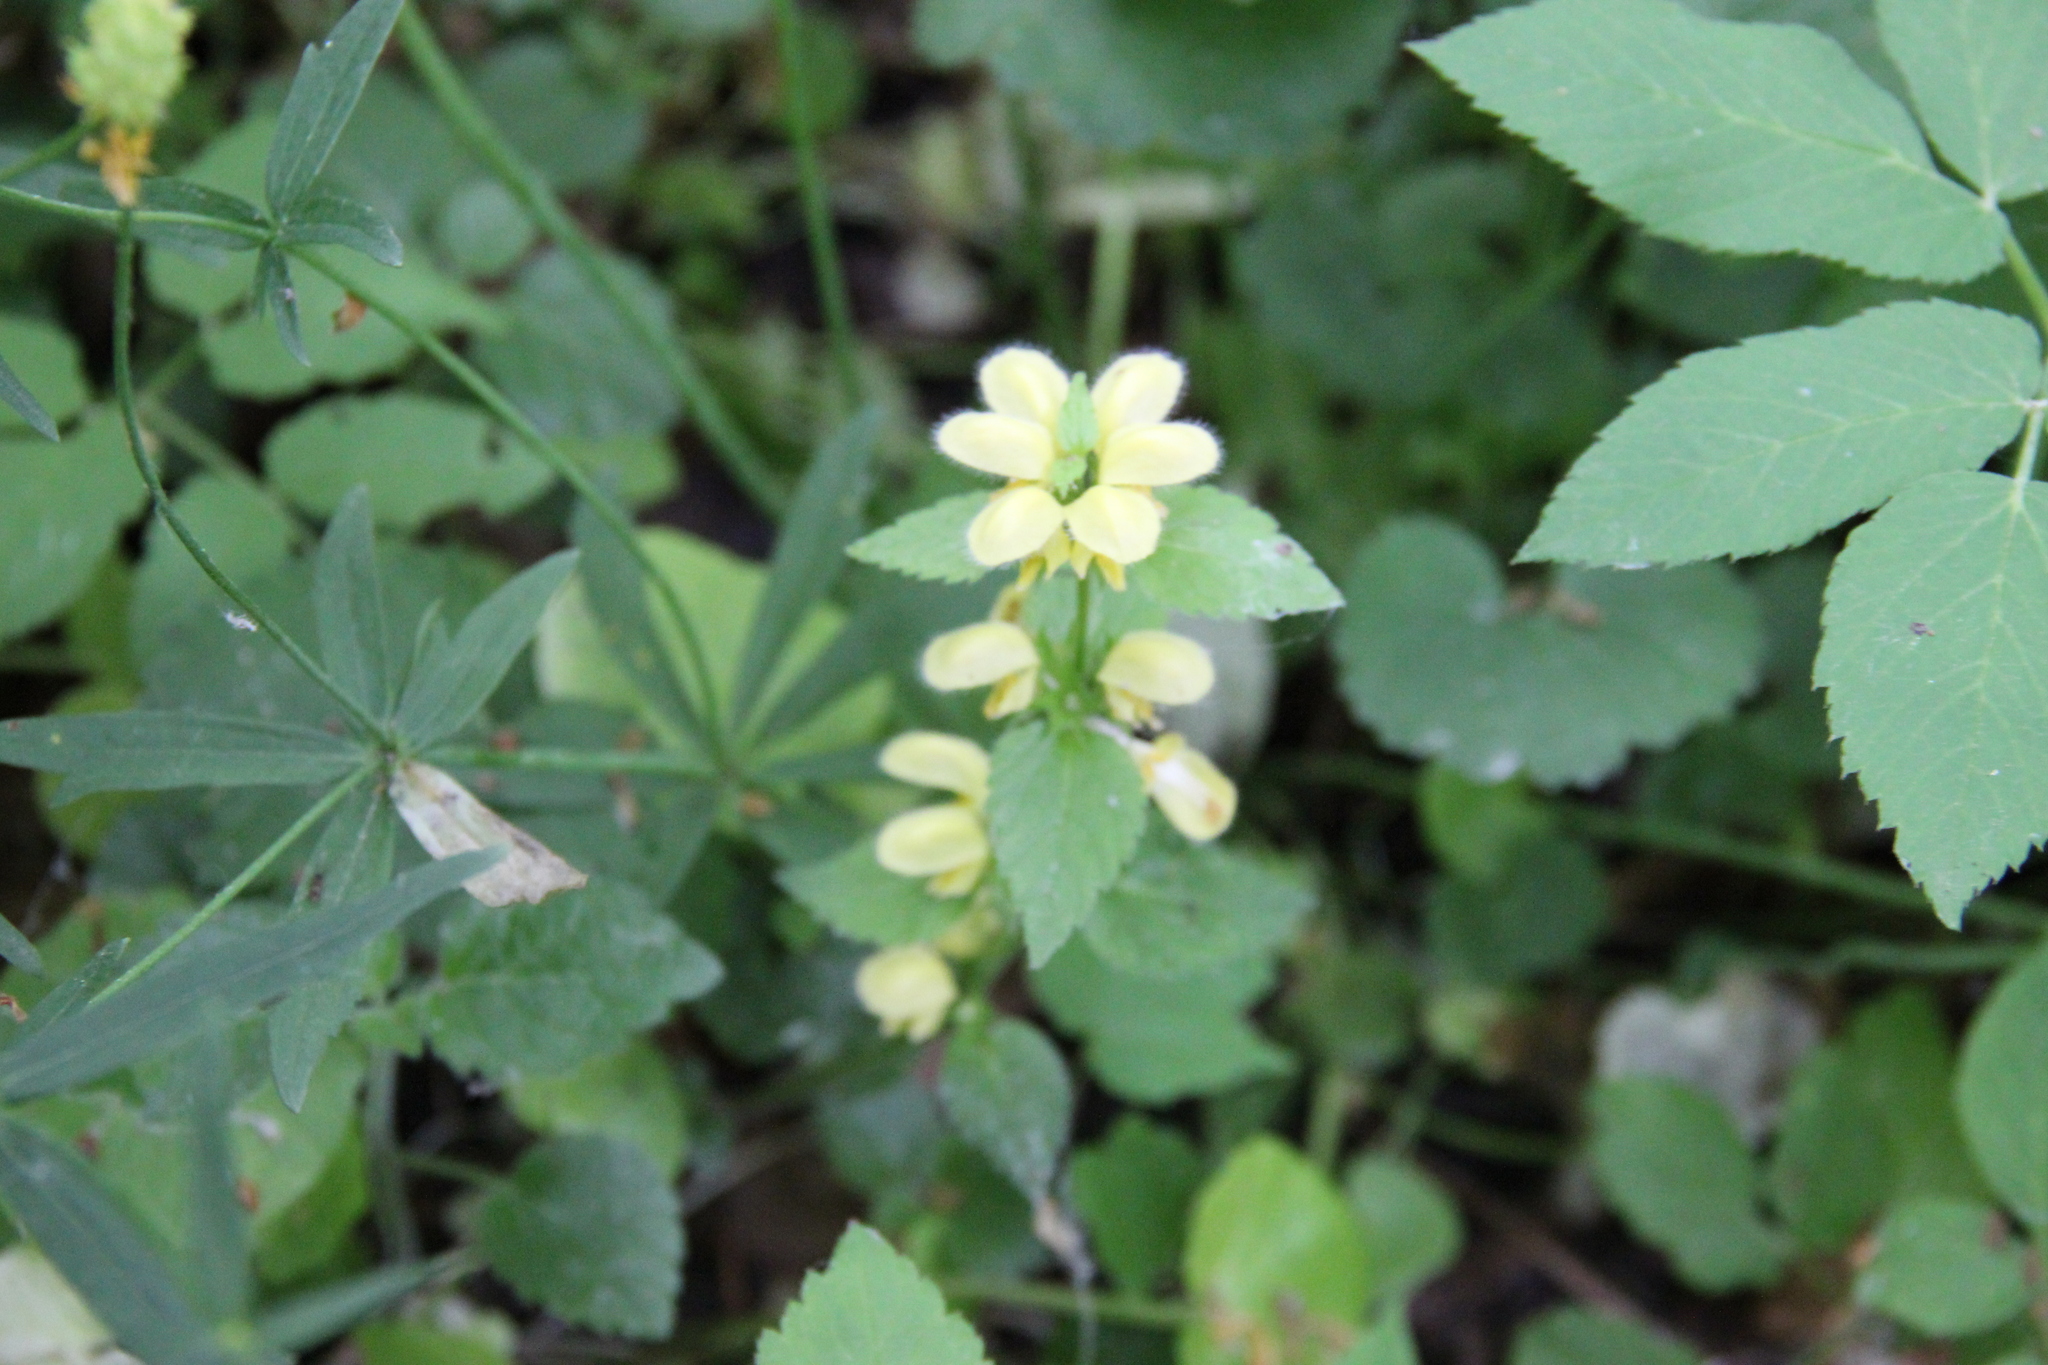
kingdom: Plantae
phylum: Tracheophyta
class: Magnoliopsida
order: Lamiales
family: Lamiaceae
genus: Lamium
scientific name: Lamium galeobdolon
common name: Yellow archangel
